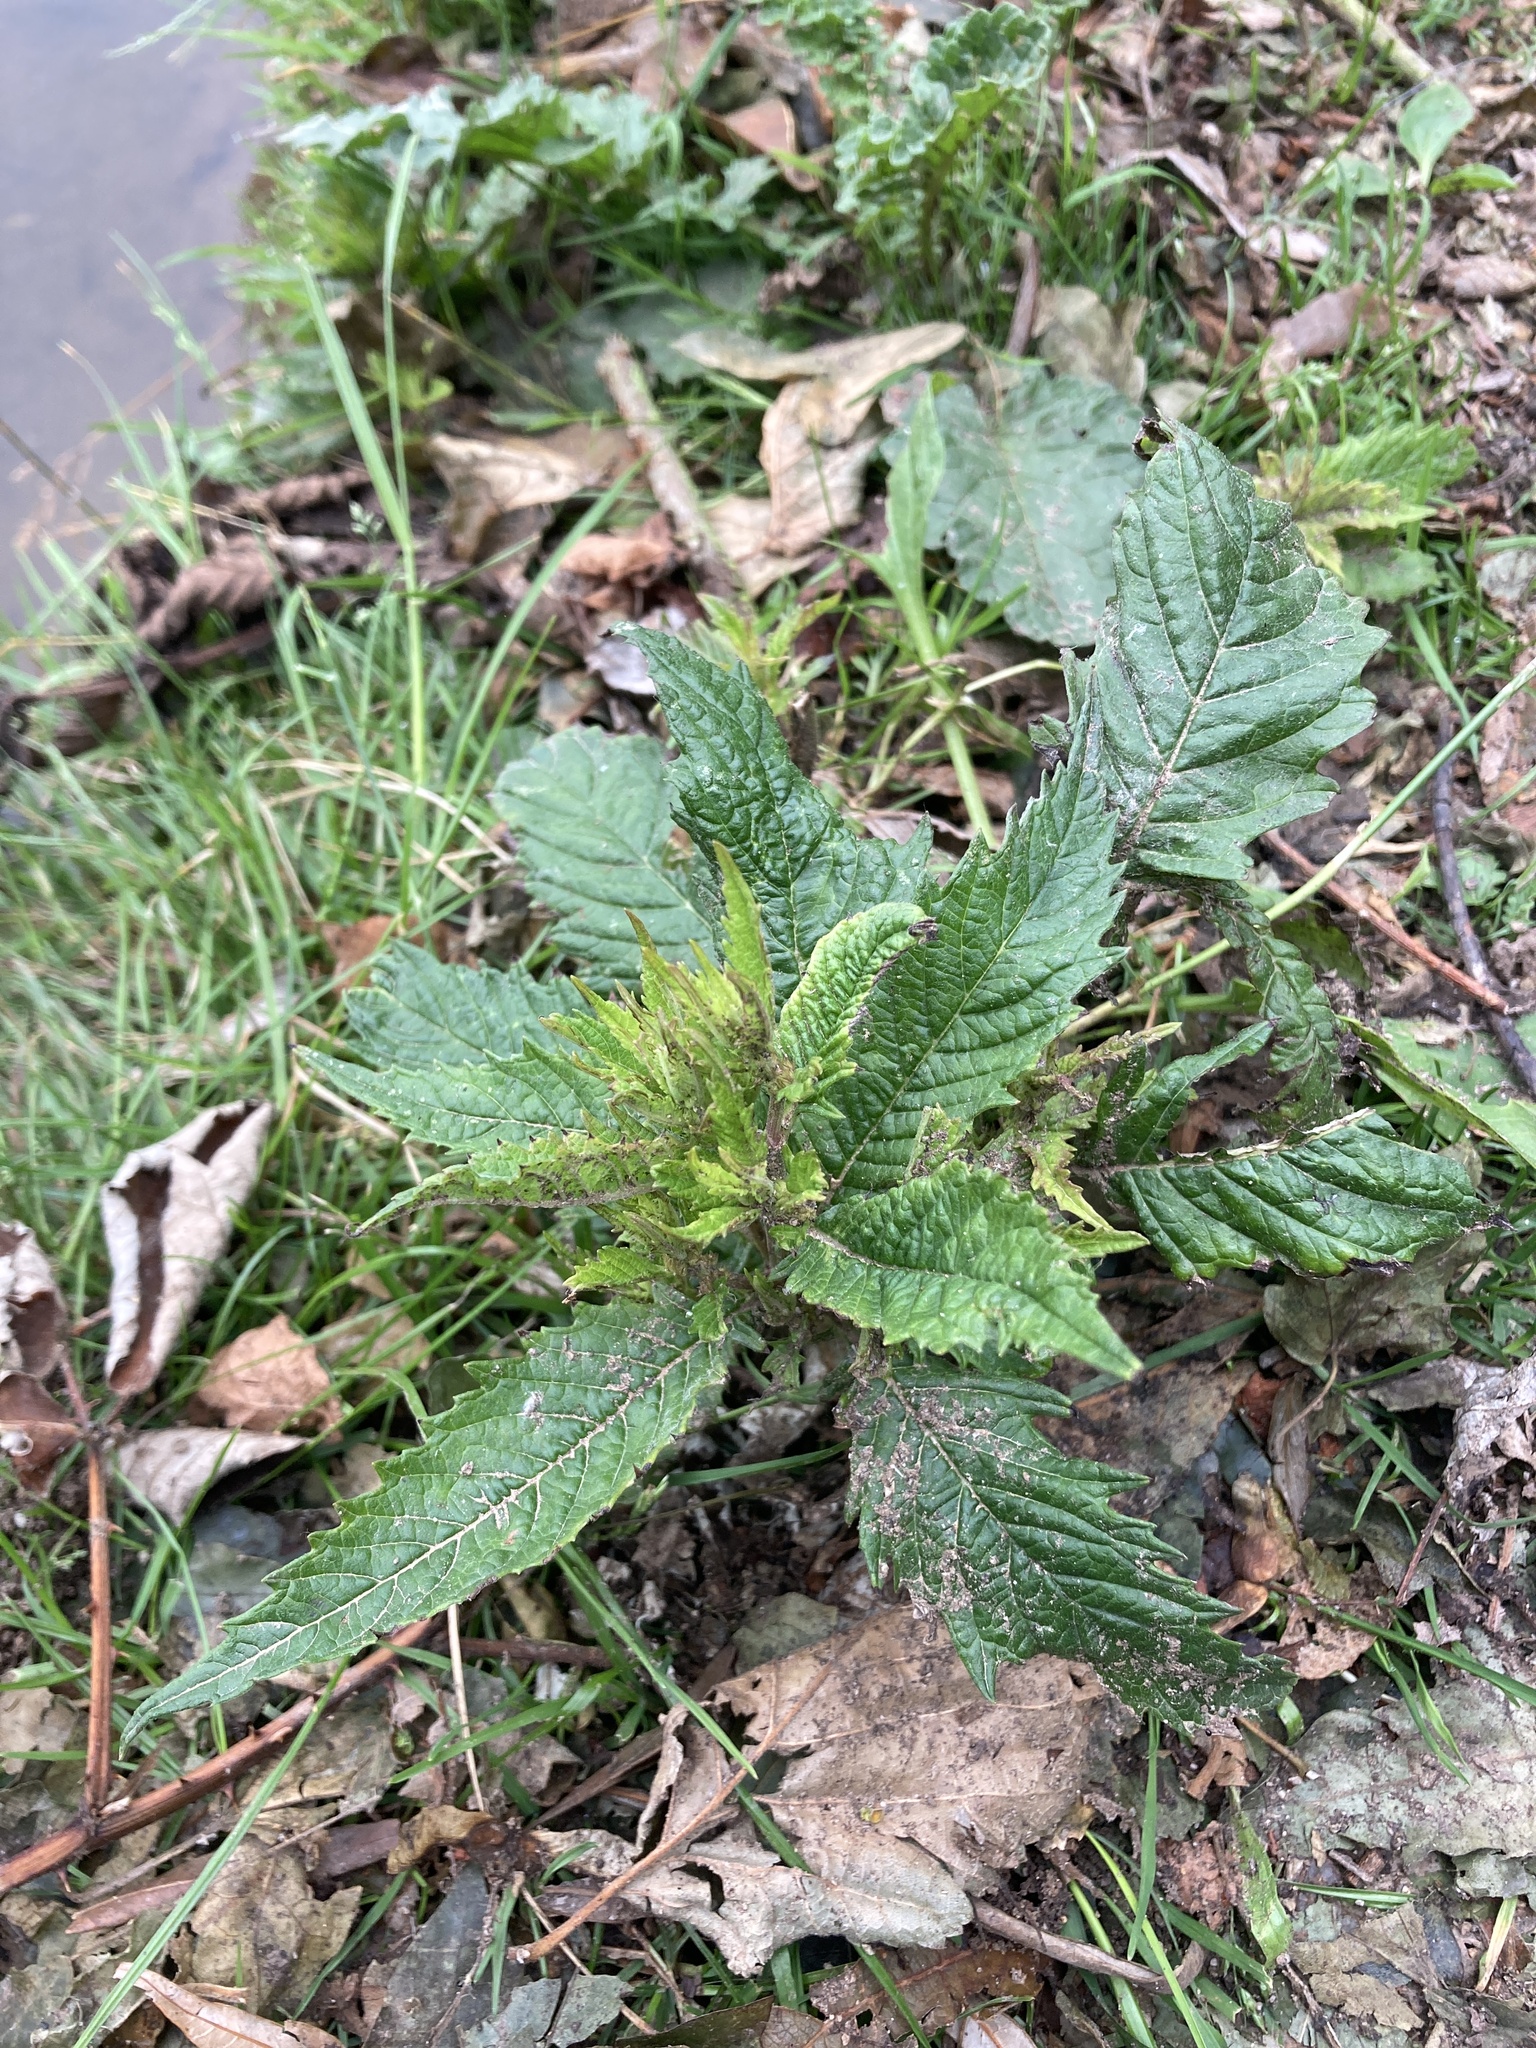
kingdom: Plantae
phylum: Tracheophyta
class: Magnoliopsida
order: Lamiales
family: Lamiaceae
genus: Lycopus
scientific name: Lycopus europaeus
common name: European bugleweed
